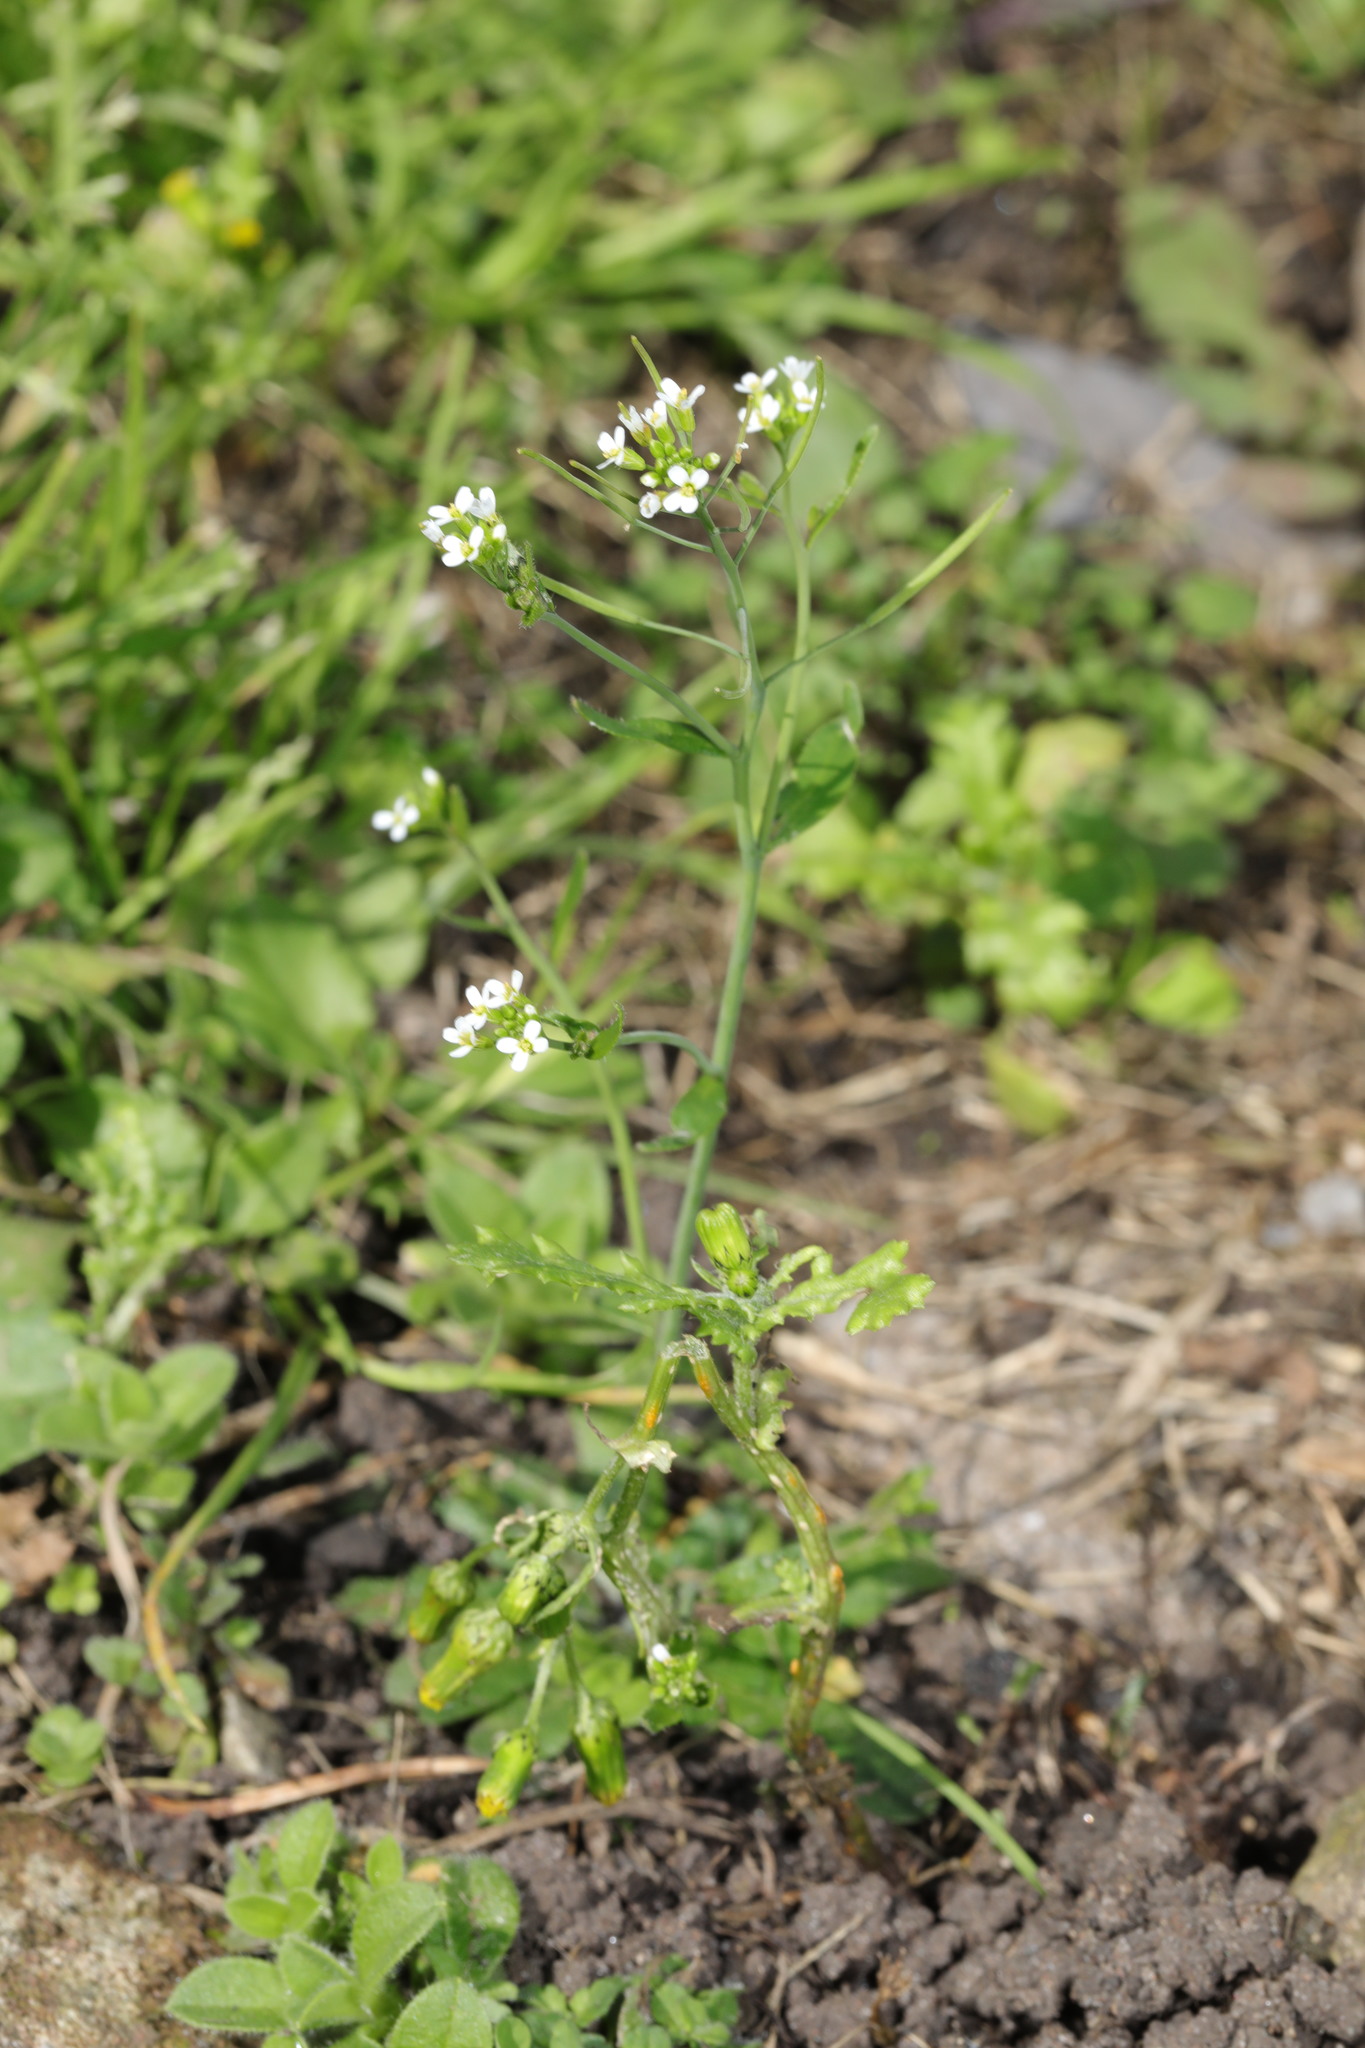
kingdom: Plantae
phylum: Tracheophyta
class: Magnoliopsida
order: Brassicales
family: Brassicaceae
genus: Arabidopsis
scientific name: Arabidopsis thaliana
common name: Thale cress
